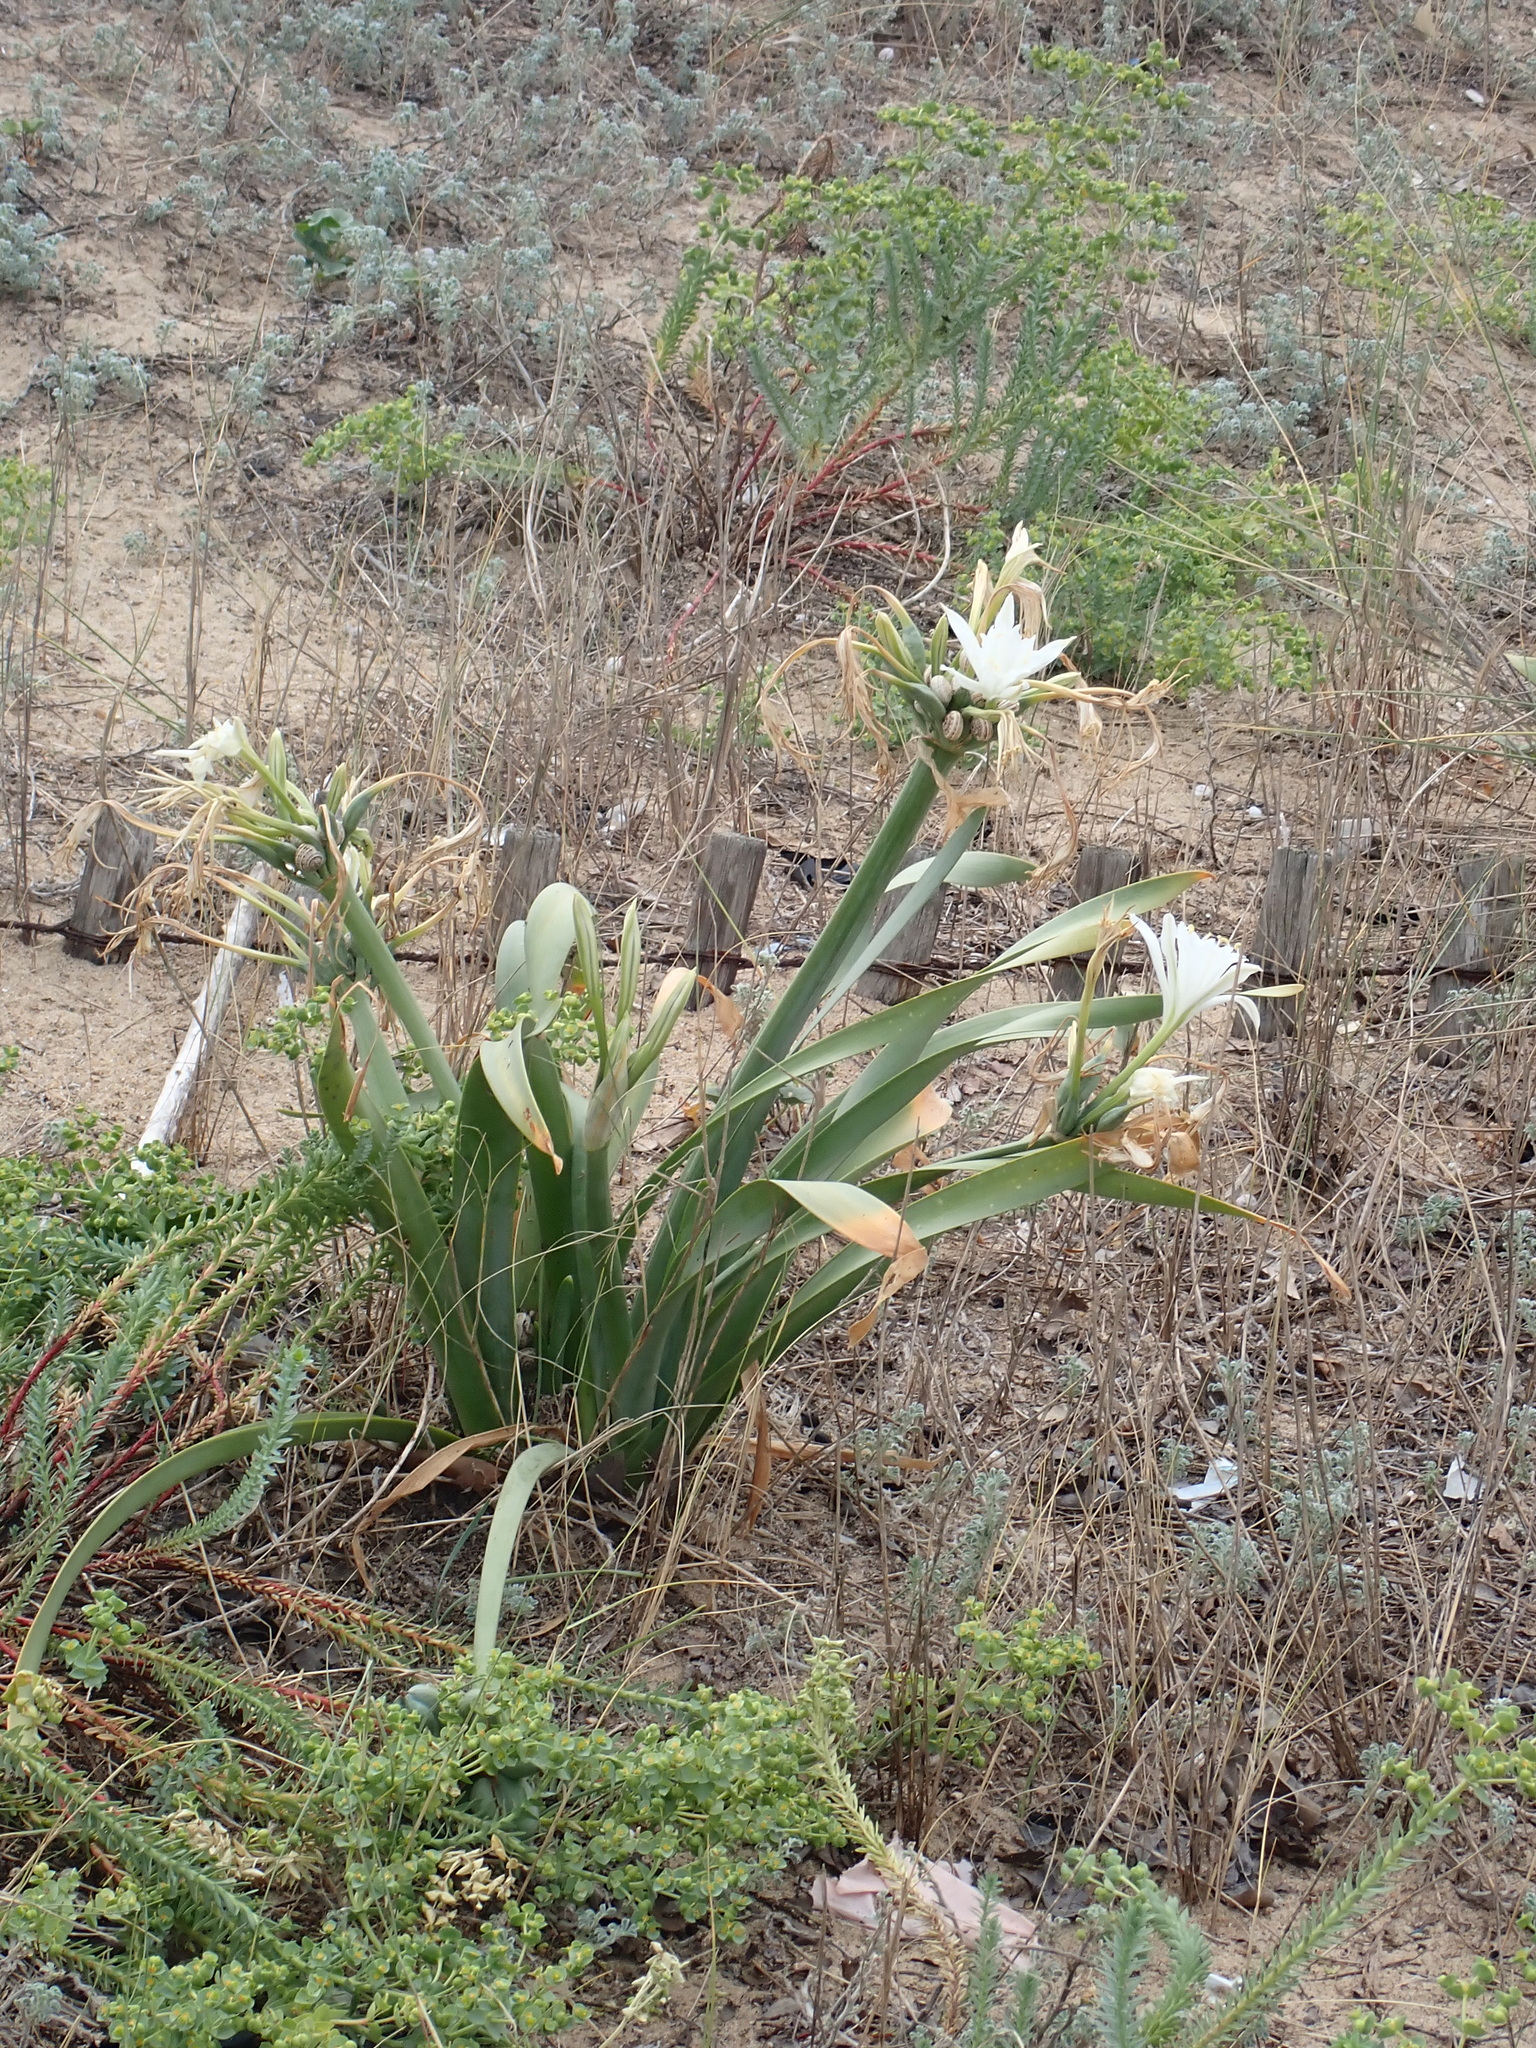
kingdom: Plantae
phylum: Tracheophyta
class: Liliopsida
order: Asparagales
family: Amaryllidaceae
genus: Pancratium
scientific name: Pancratium maritimum
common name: Sea-daffodil
